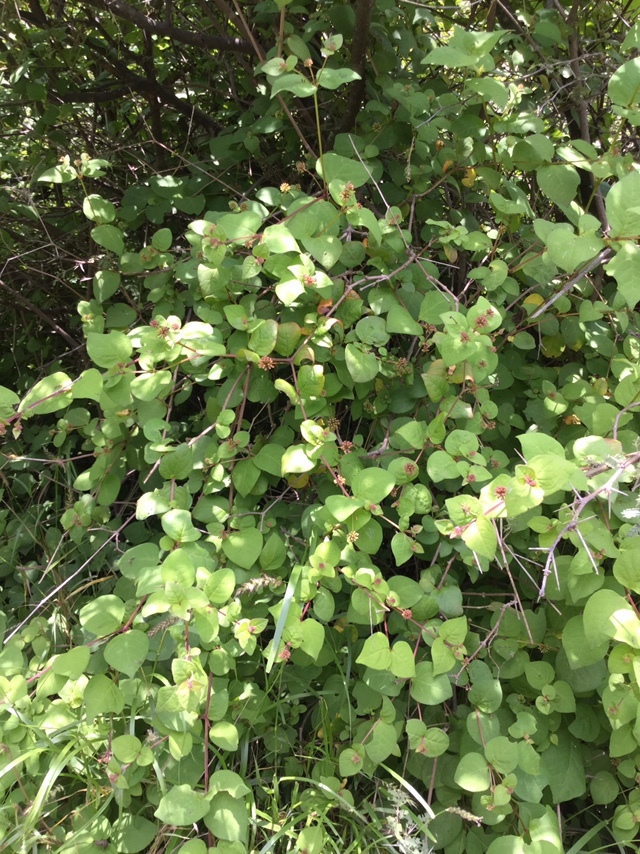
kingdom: Plantae
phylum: Tracheophyta
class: Magnoliopsida
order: Caryophyllales
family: Nyctaginaceae
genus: Pisoniella
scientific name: Pisoniella arborescens
